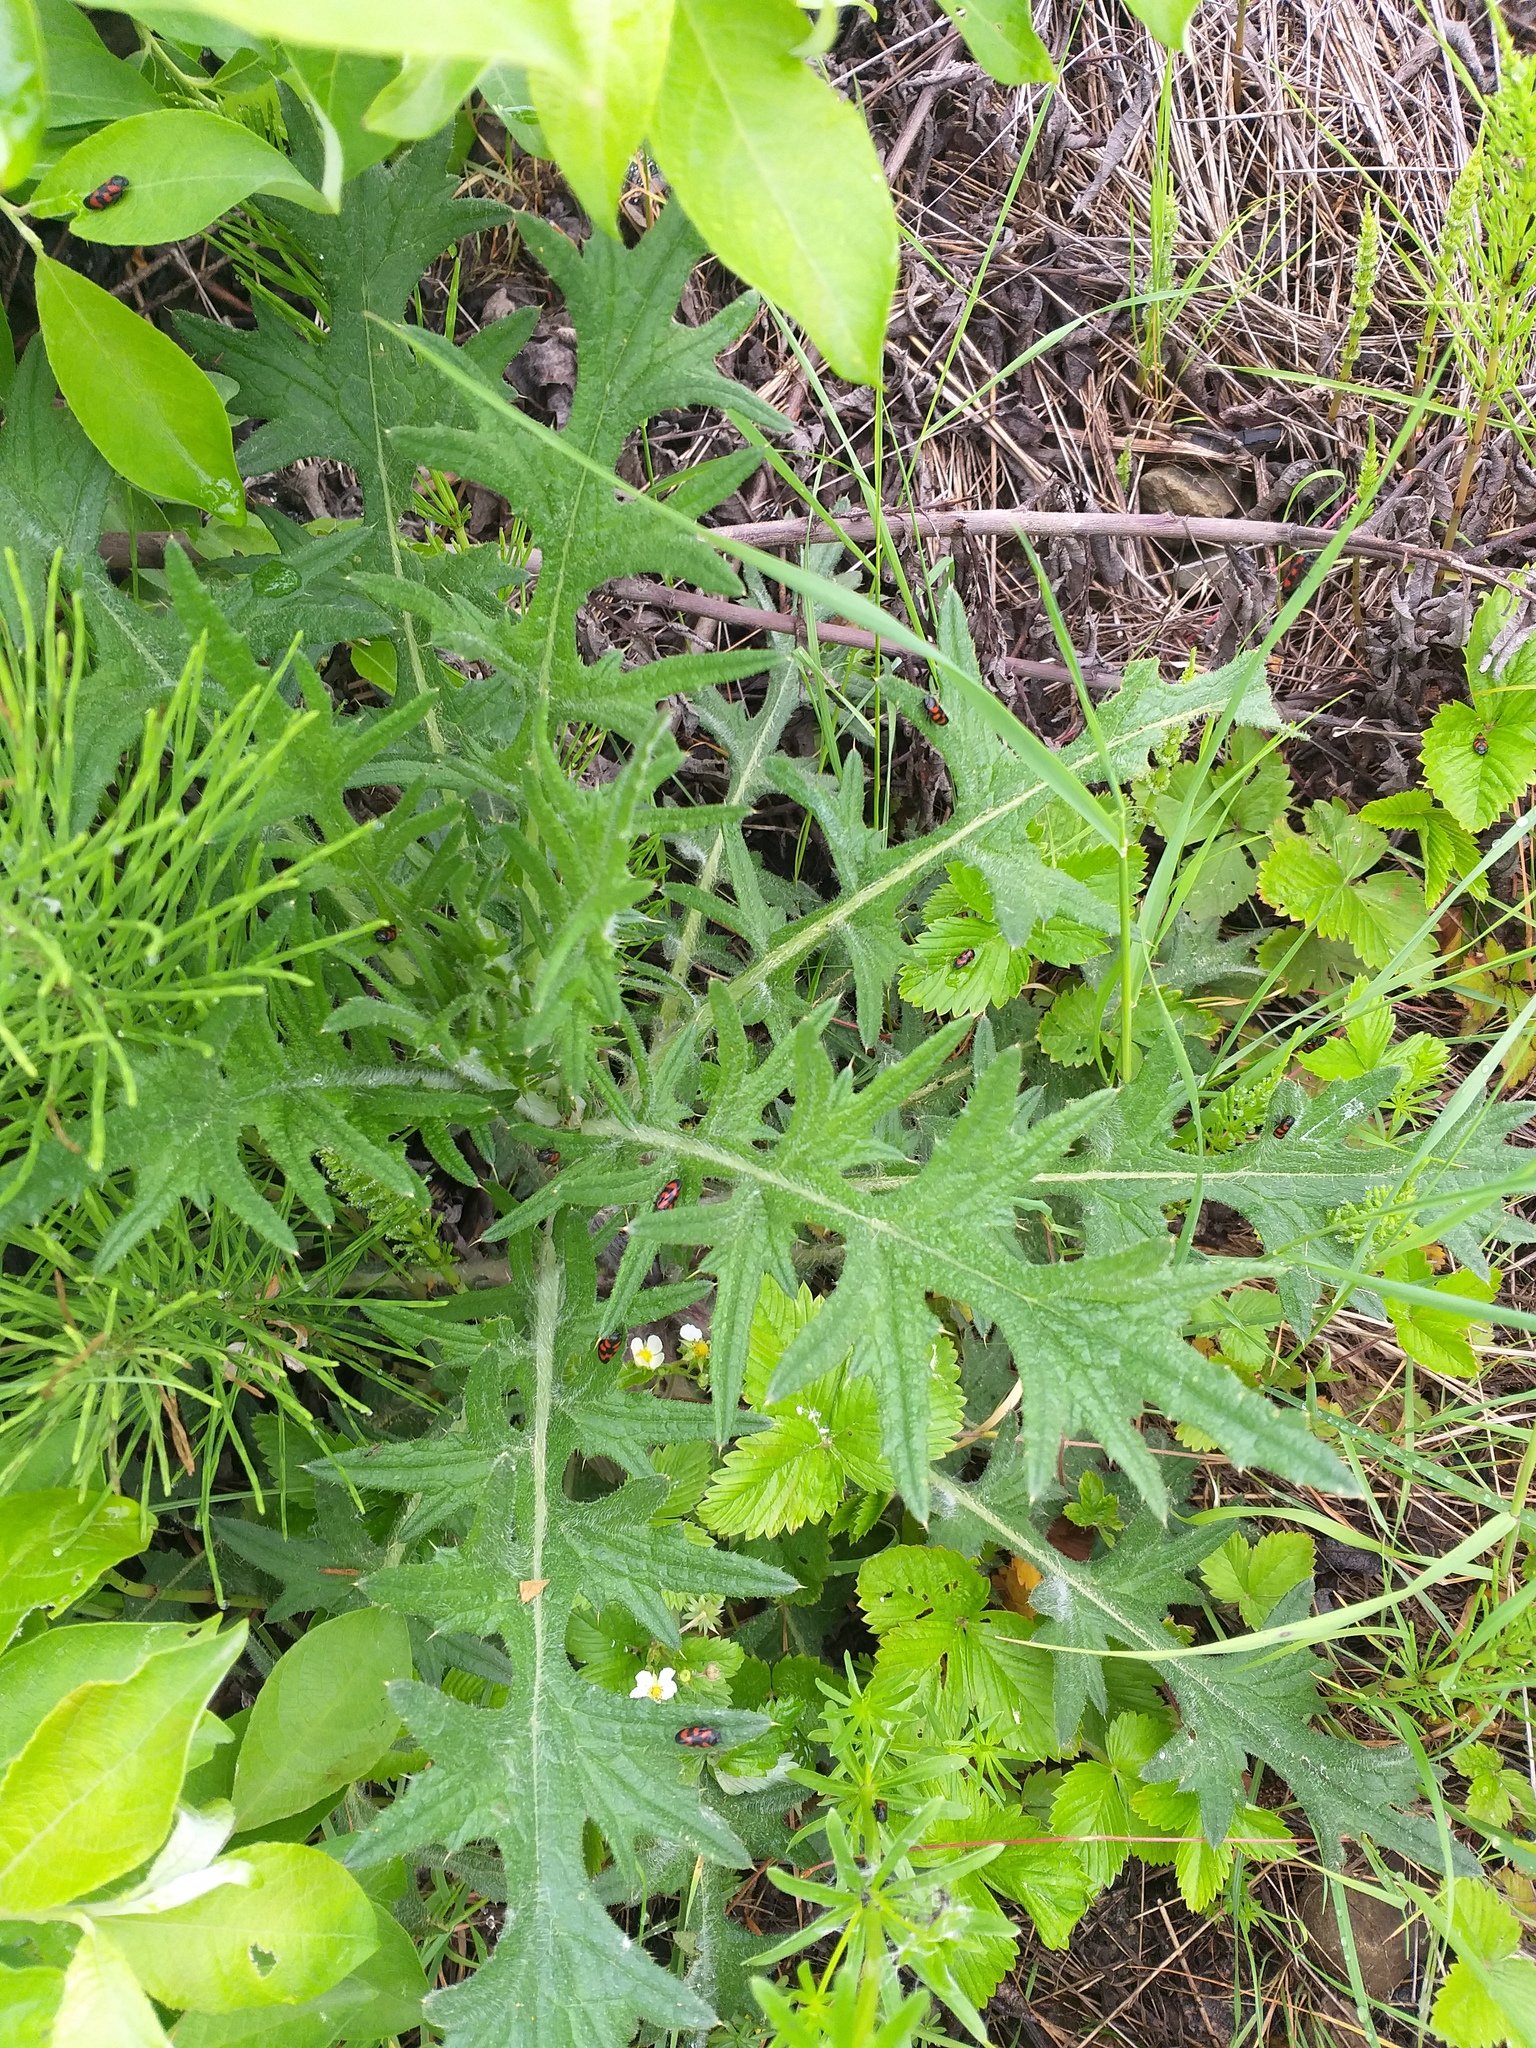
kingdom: Plantae
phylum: Tracheophyta
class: Magnoliopsida
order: Asterales
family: Asteraceae
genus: Cirsium
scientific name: Cirsium vulgare
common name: Bull thistle
